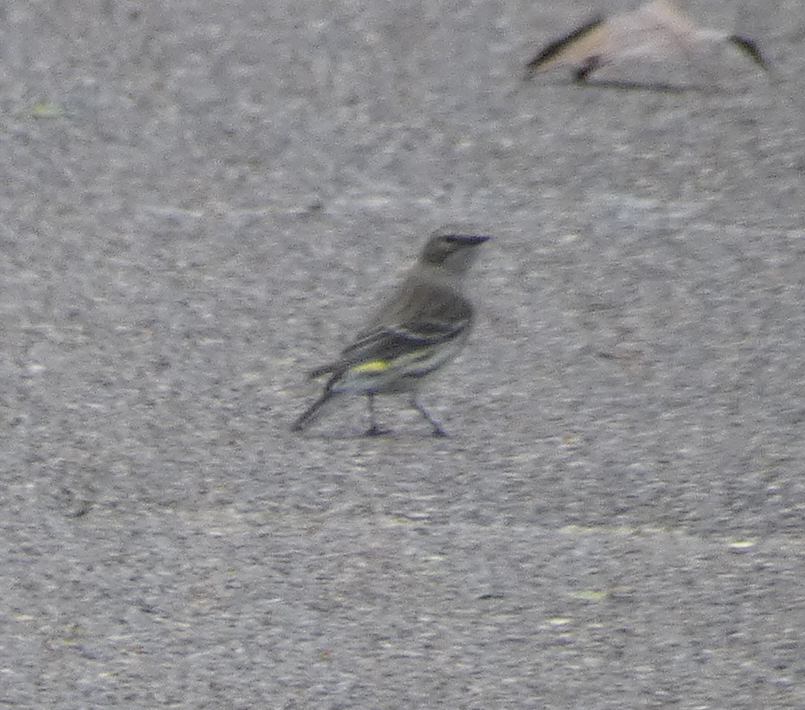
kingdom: Animalia
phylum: Chordata
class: Aves
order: Passeriformes
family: Parulidae
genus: Setophaga
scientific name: Setophaga coronata
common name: Myrtle warbler
